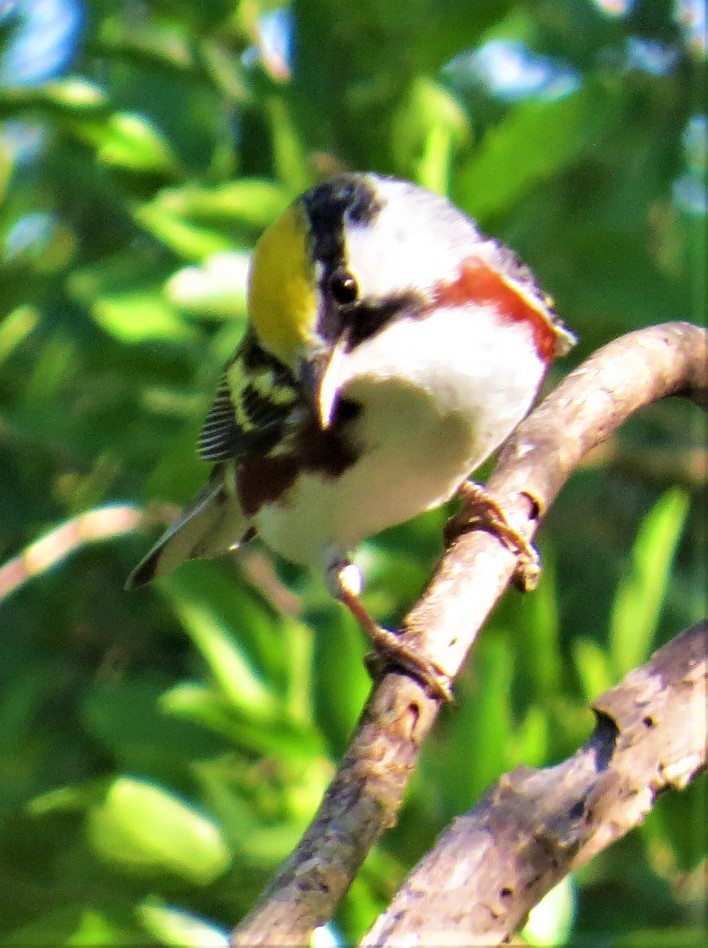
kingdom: Animalia
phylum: Chordata
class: Aves
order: Passeriformes
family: Parulidae
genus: Setophaga
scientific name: Setophaga pensylvanica
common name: Chestnut-sided warbler
